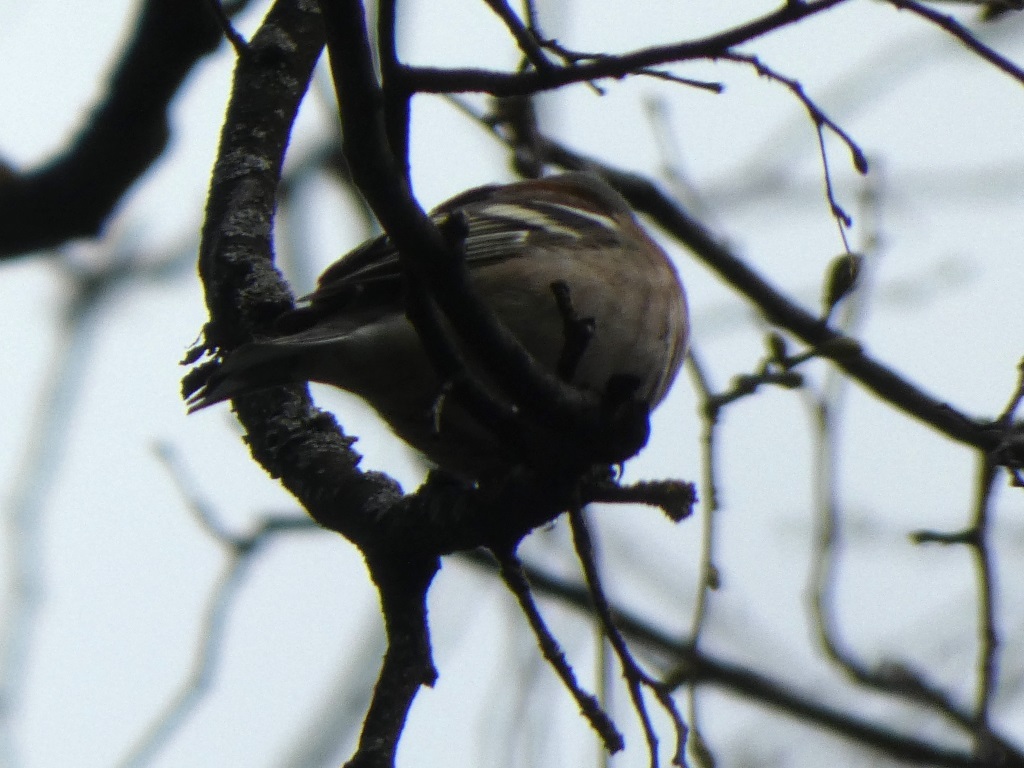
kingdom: Animalia
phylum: Chordata
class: Aves
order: Passeriformes
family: Fringillidae
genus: Fringilla
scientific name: Fringilla coelebs
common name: Common chaffinch
